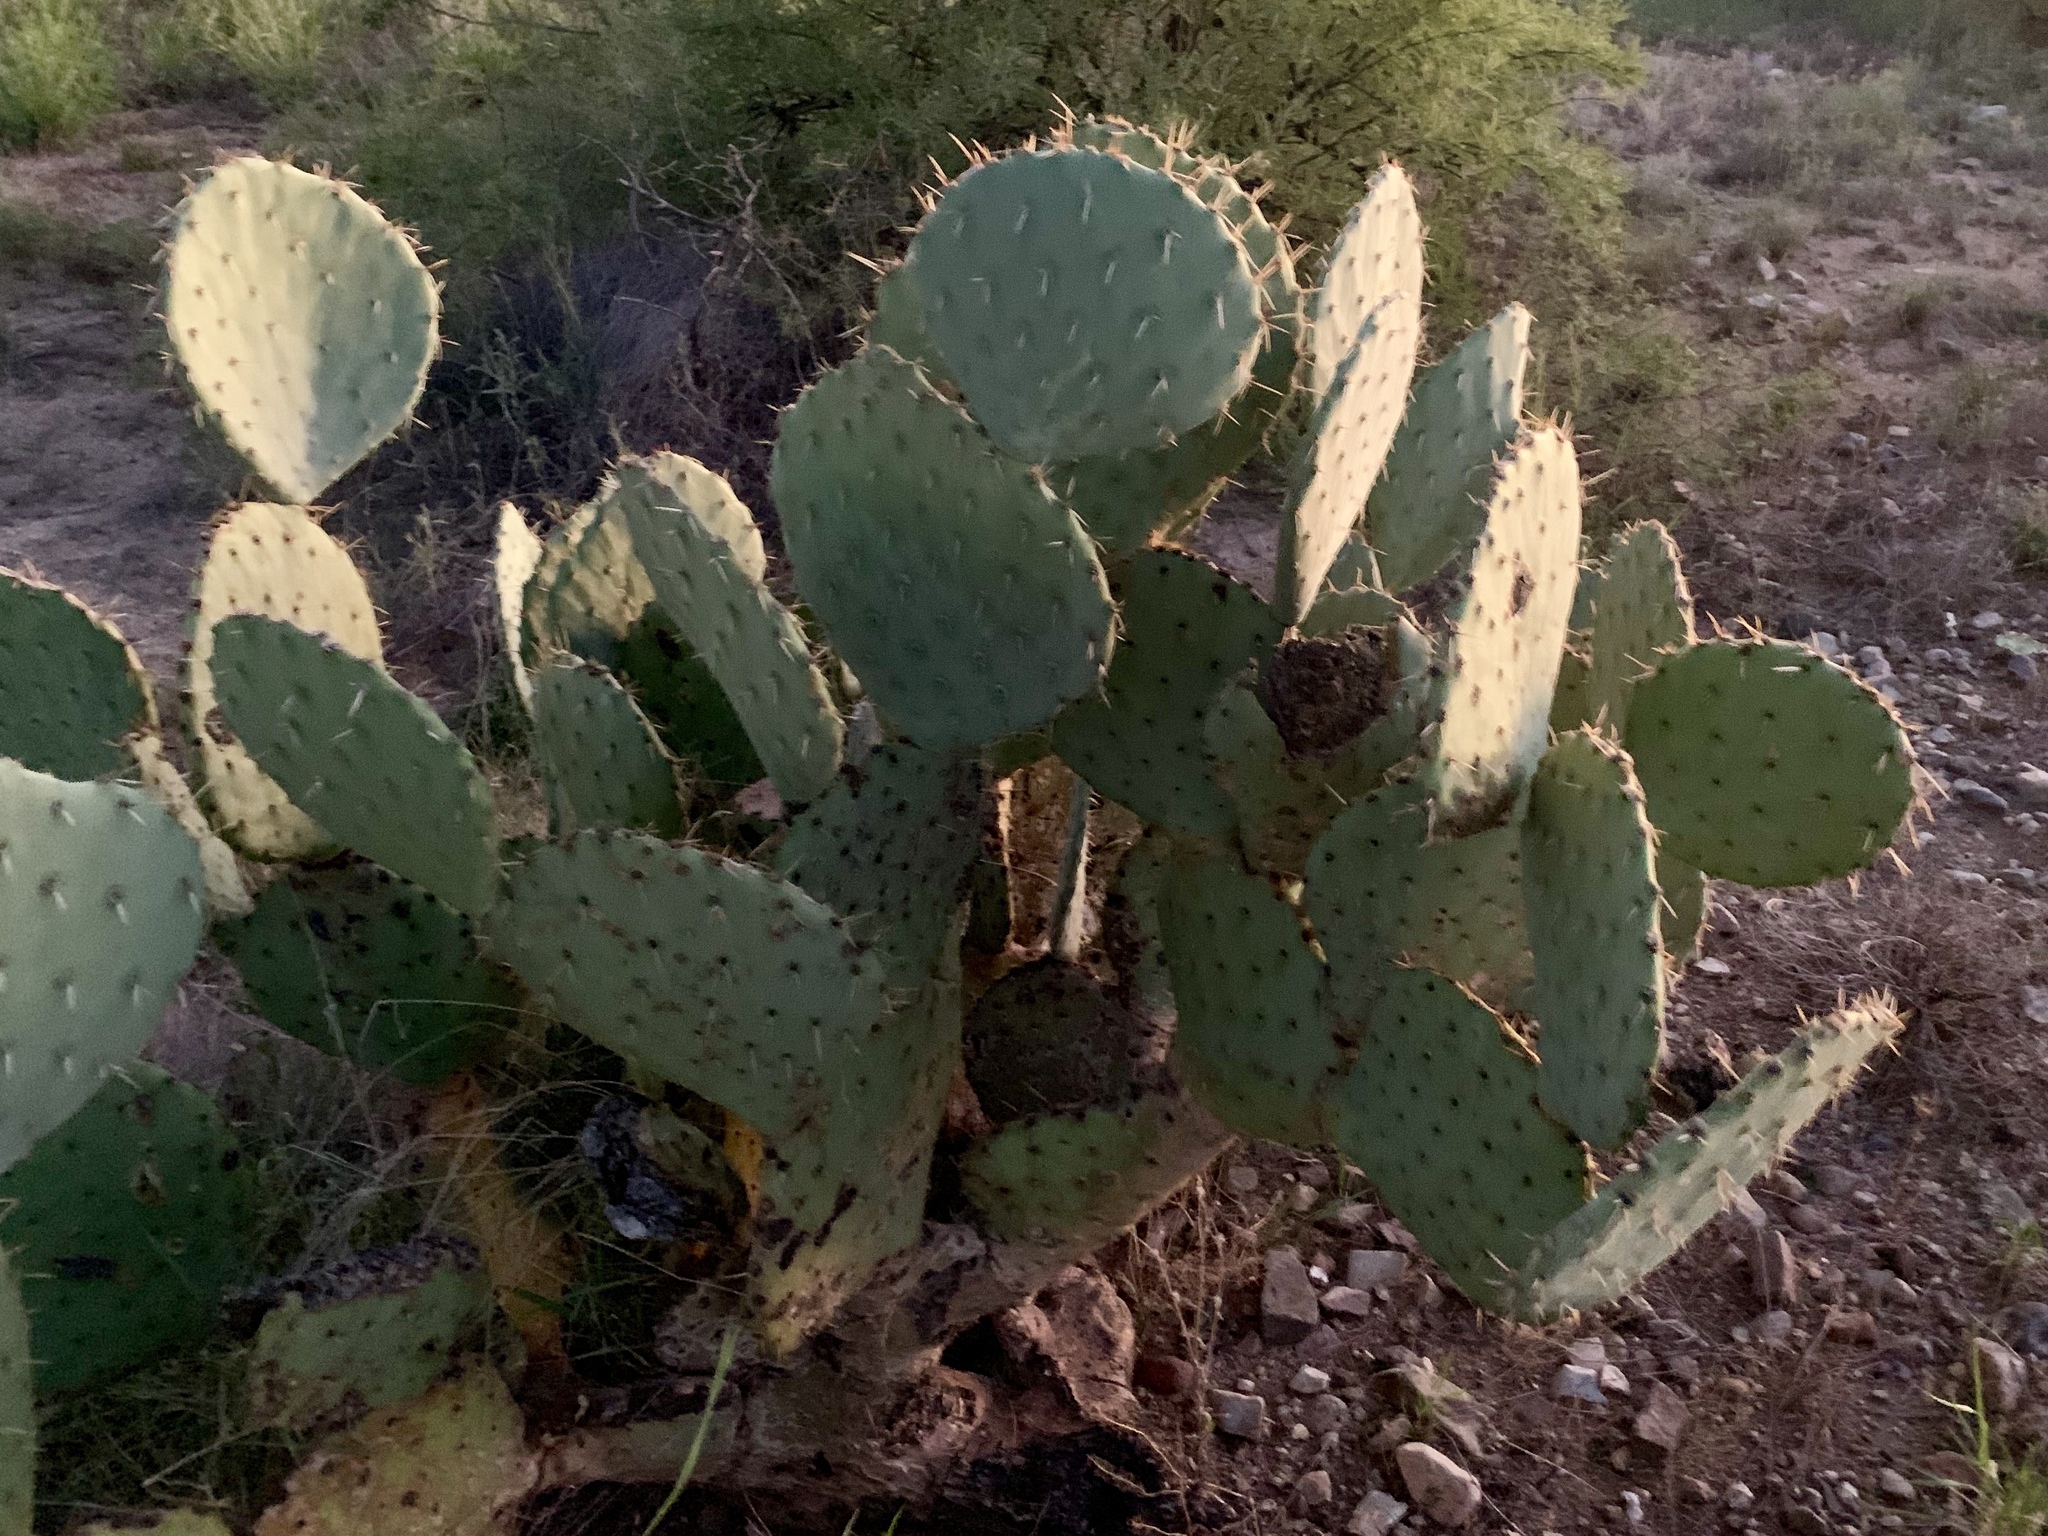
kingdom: Plantae
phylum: Tracheophyta
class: Magnoliopsida
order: Caryophyllales
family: Cactaceae
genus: Opuntia
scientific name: Opuntia engelmannii
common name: Cactus-apple
